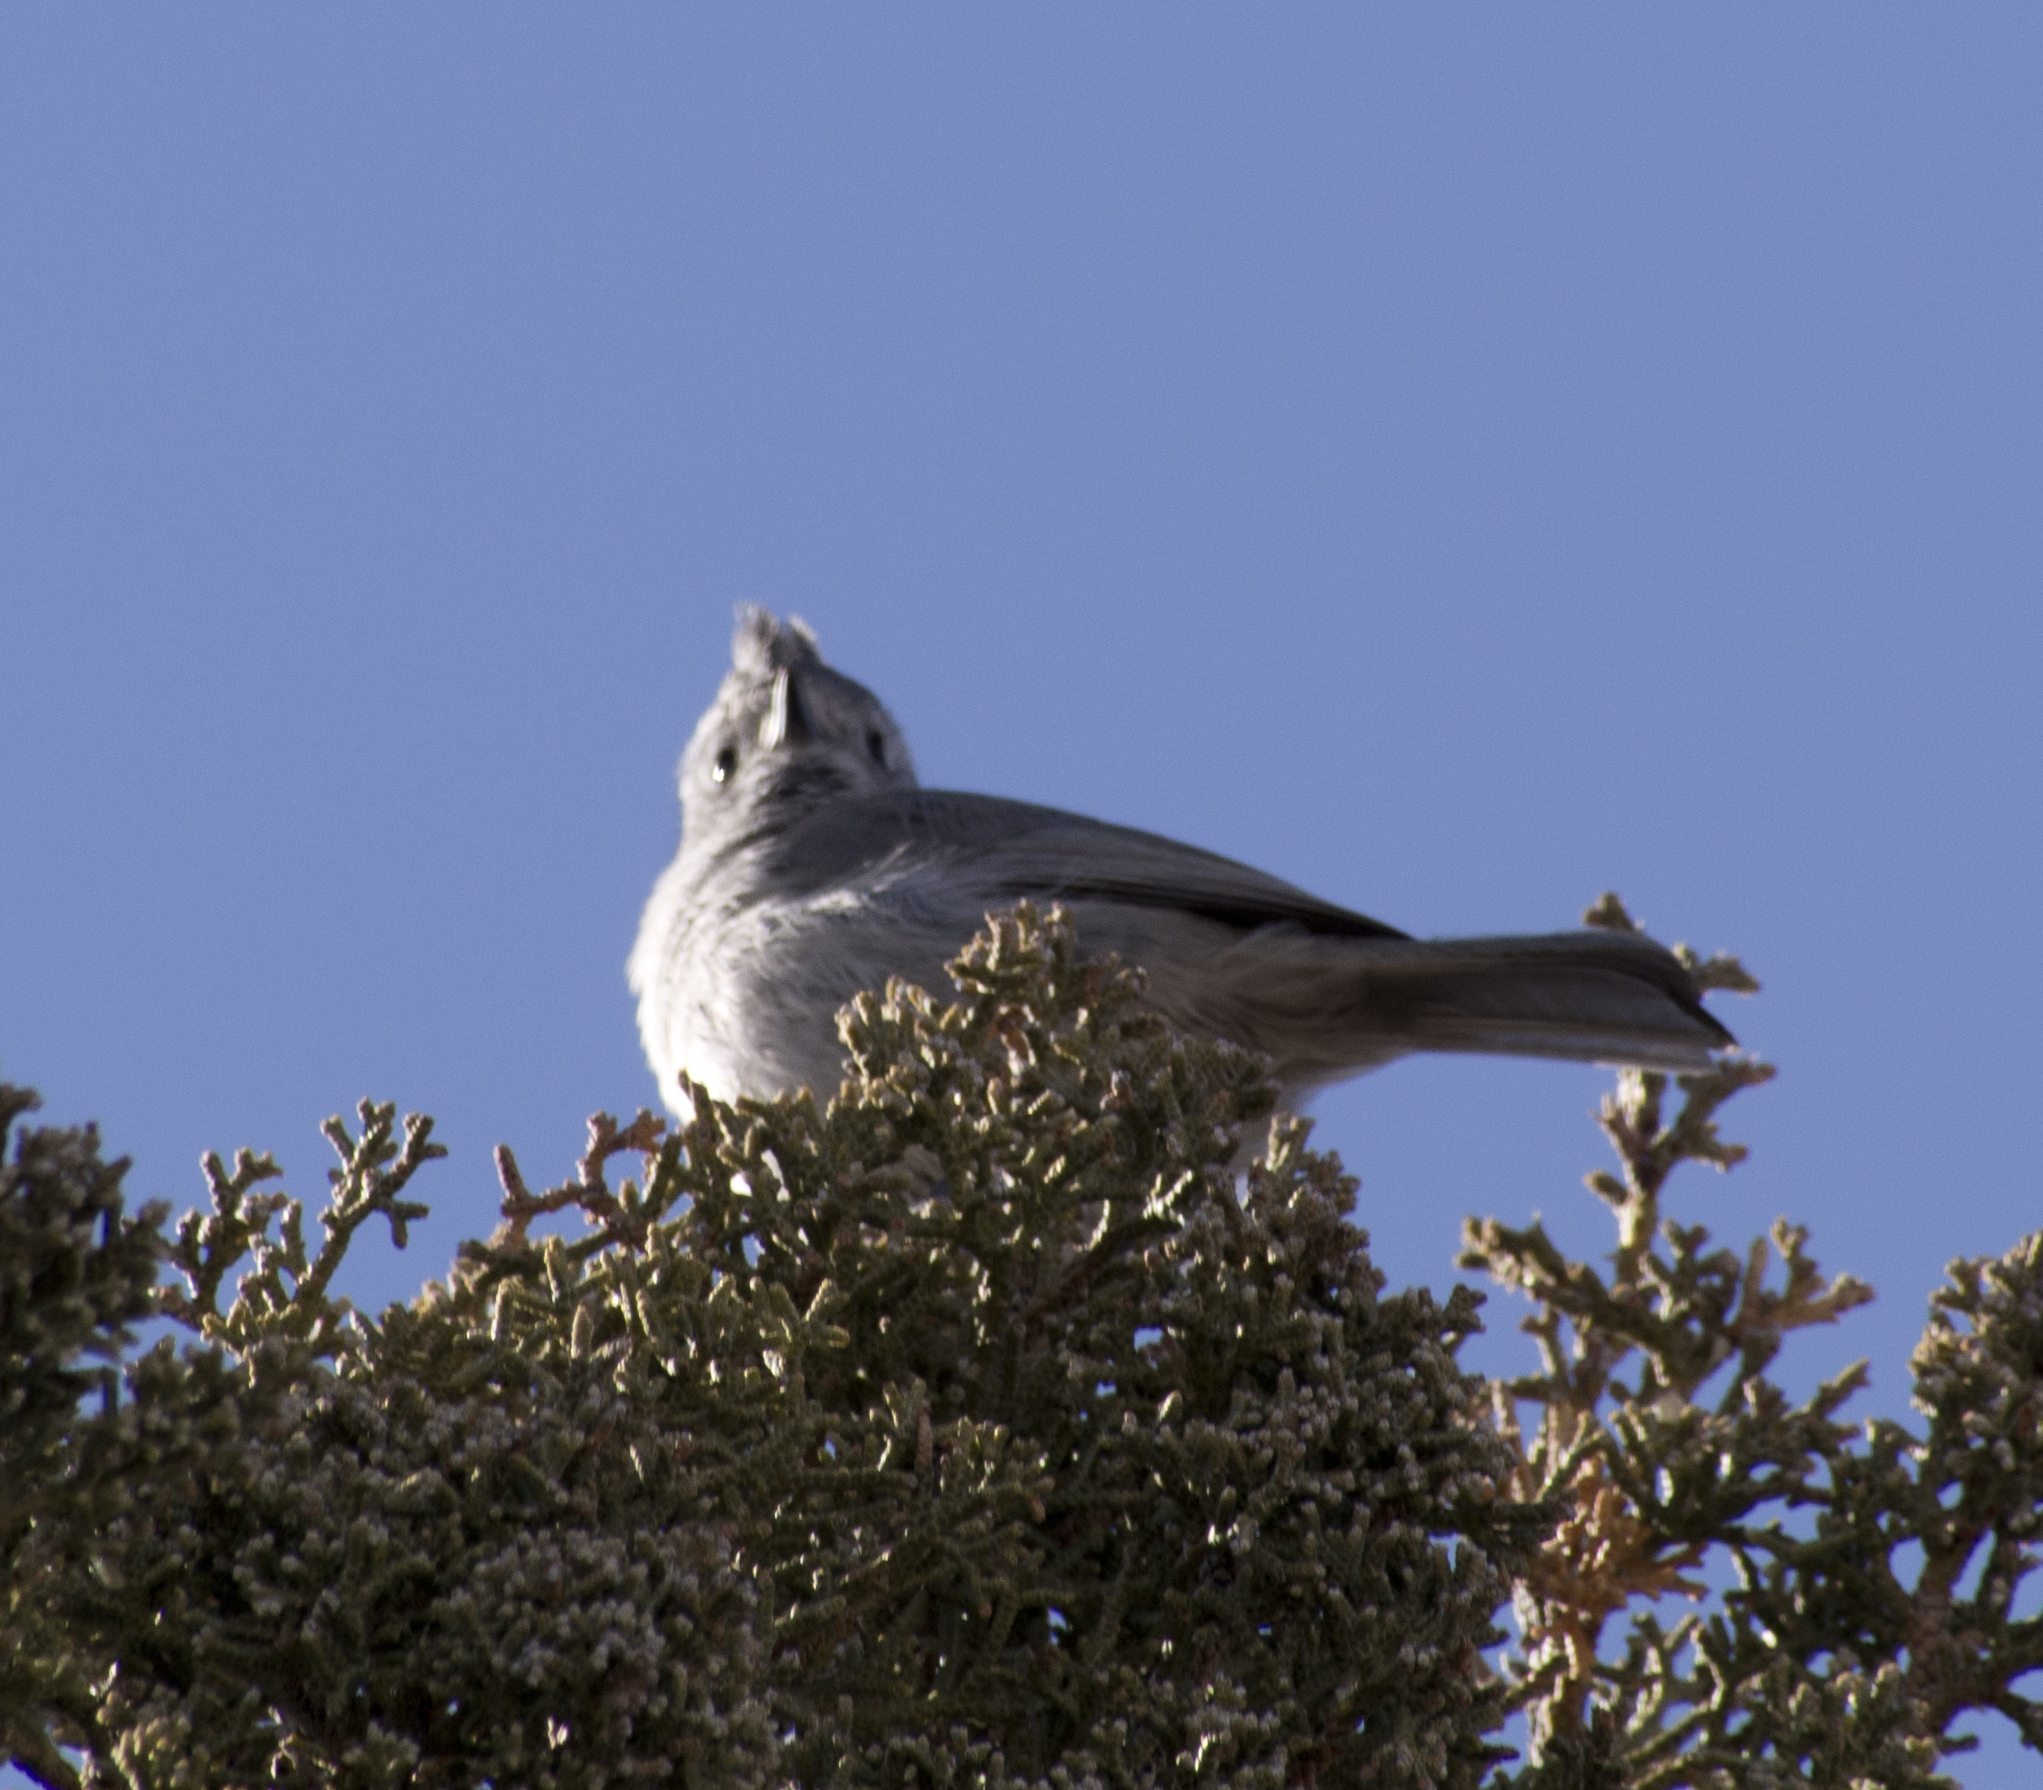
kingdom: Animalia
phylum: Chordata
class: Aves
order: Passeriformes
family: Paridae
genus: Baeolophus
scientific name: Baeolophus ridgwayi
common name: Juniper titmouse
